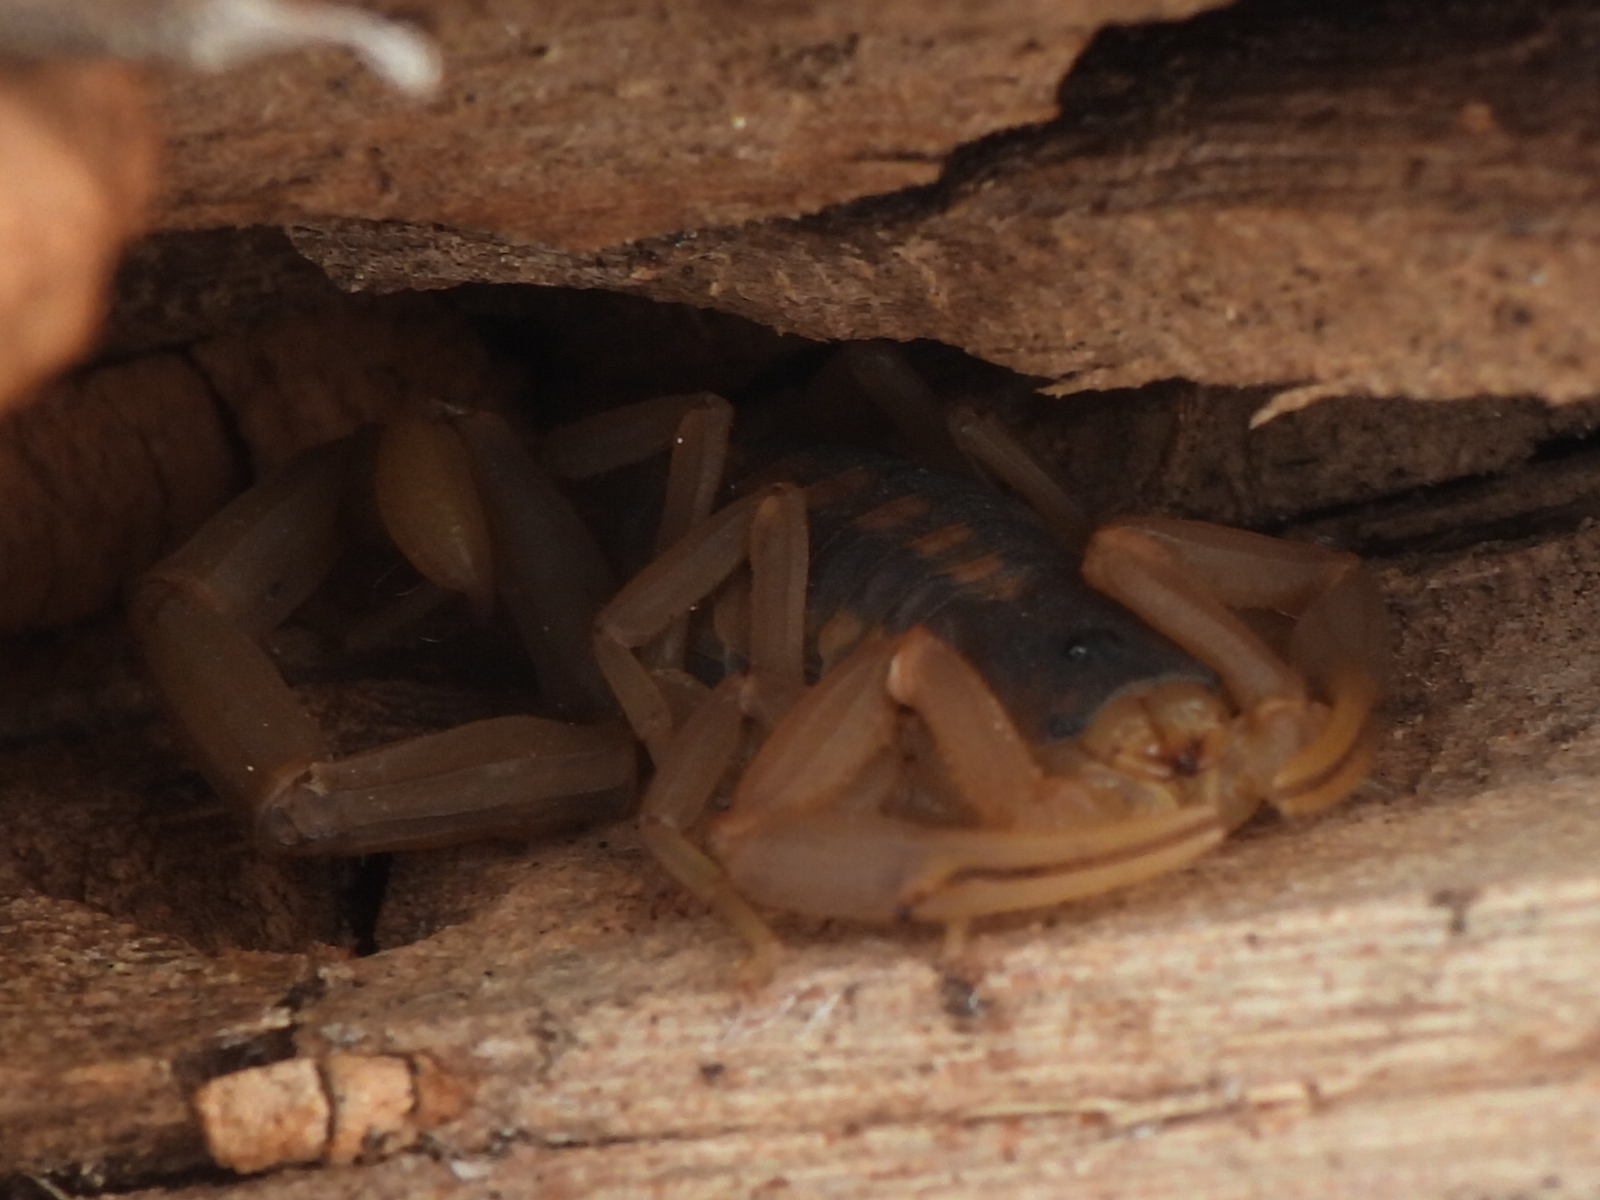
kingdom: Animalia
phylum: Arthropoda
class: Arachnida
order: Scorpiones
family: Buthidae
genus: Centruroides
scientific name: Centruroides vittatus
